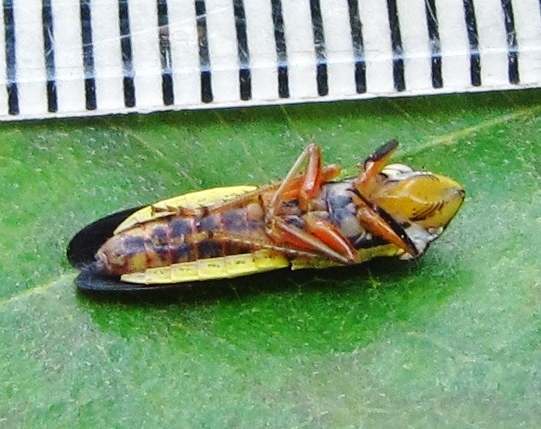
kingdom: Animalia
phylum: Arthropoda
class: Insecta
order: Hemiptera
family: Cicadellidae
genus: Homalodisca
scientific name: Homalodisca insolita
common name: Johnson grass sharpshooter
